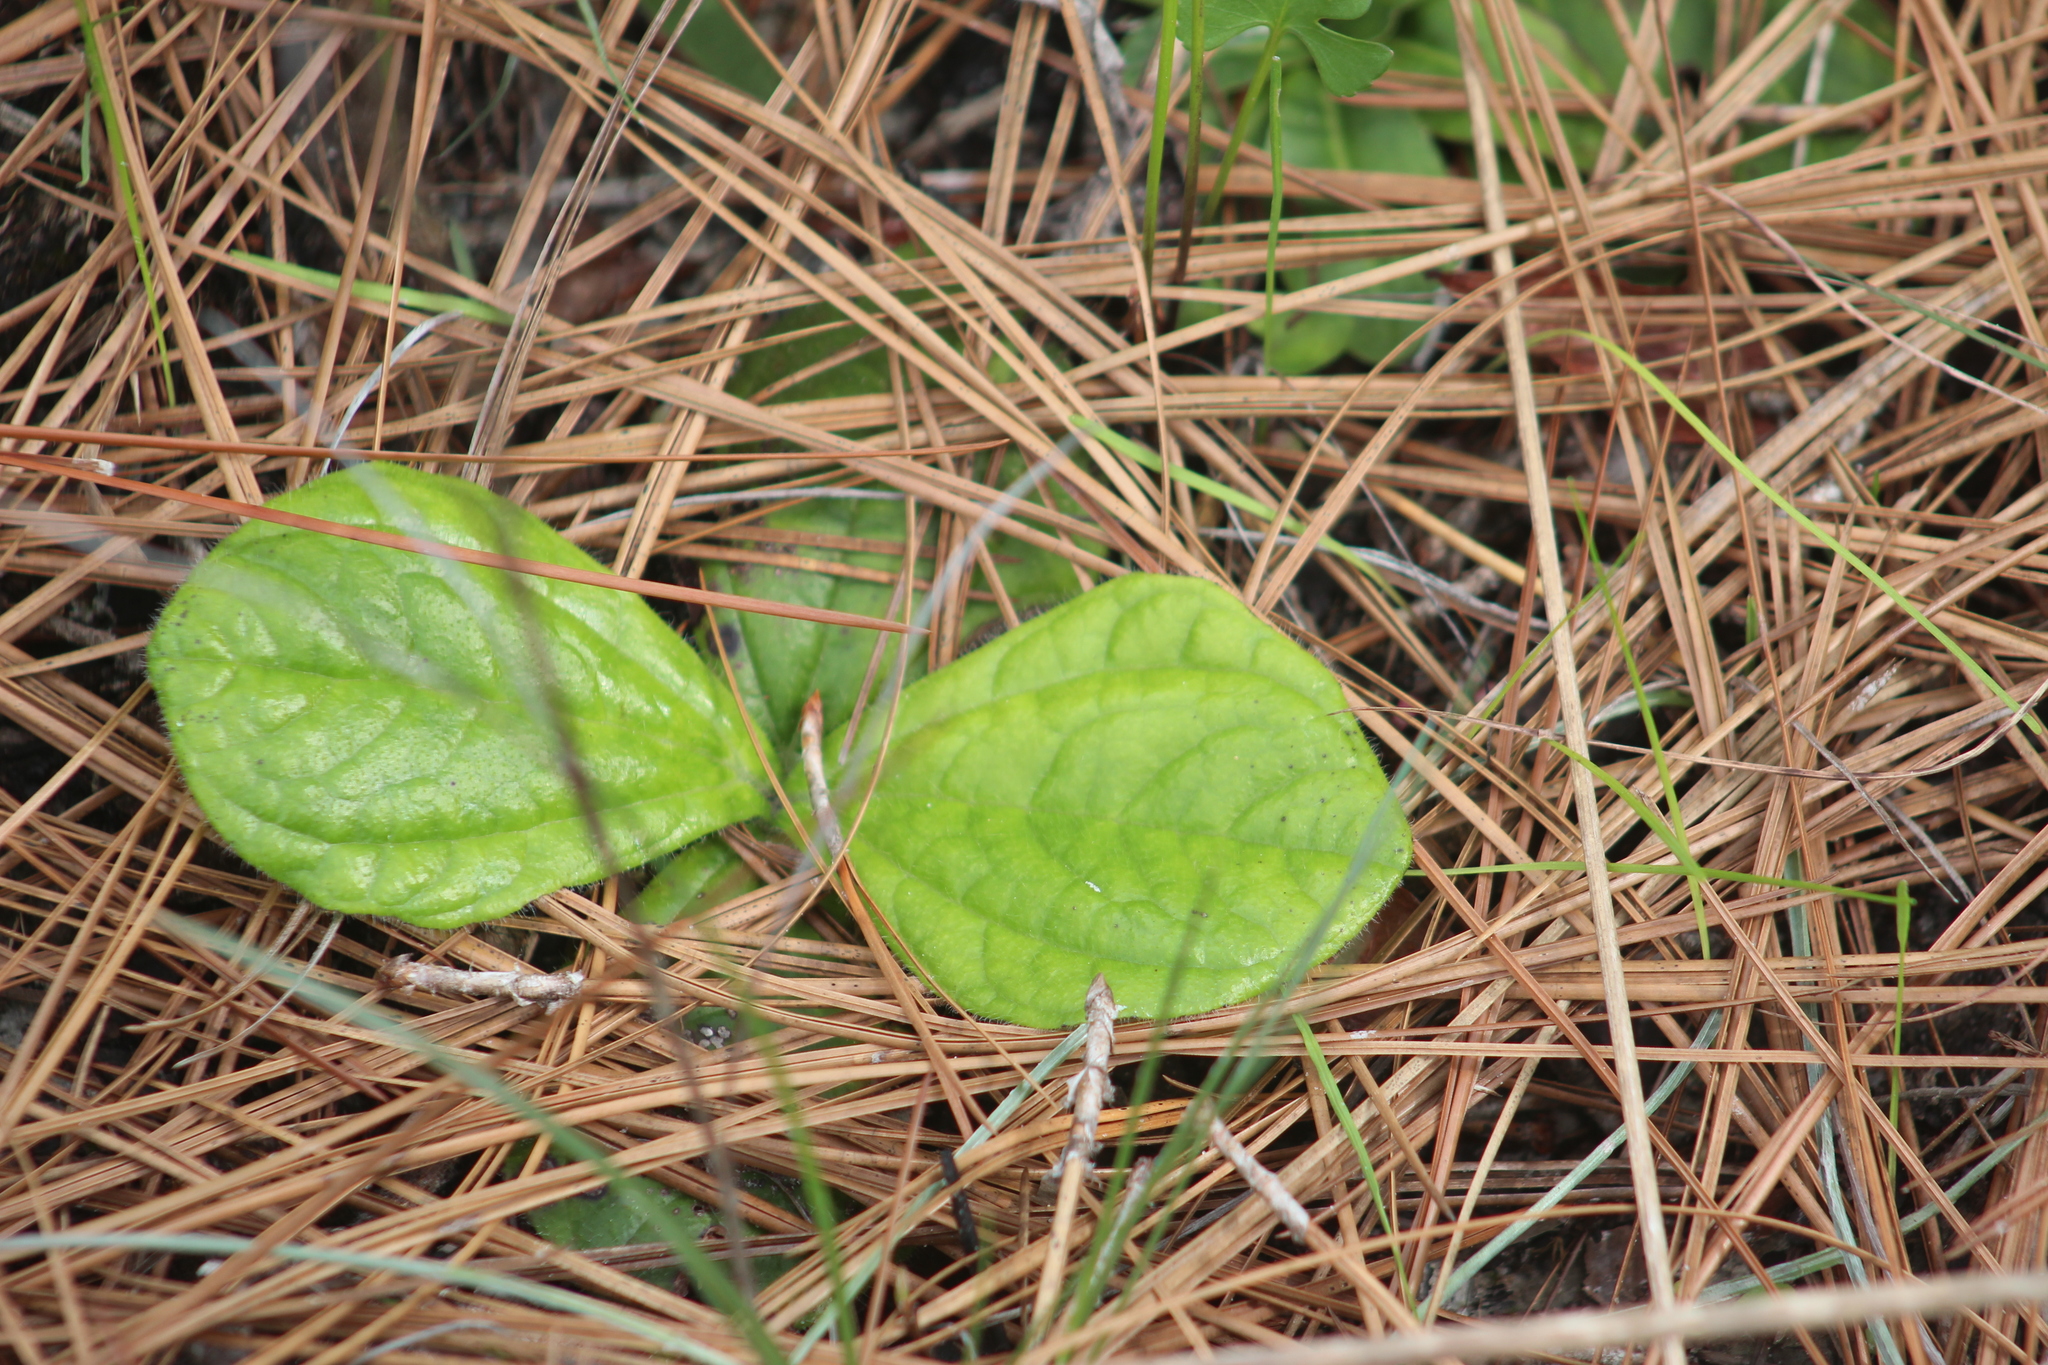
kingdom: Plantae
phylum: Tracheophyta
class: Magnoliopsida
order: Asterales
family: Asteraceae
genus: Helianthus
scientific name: Helianthus radula
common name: Pineland sunflower
